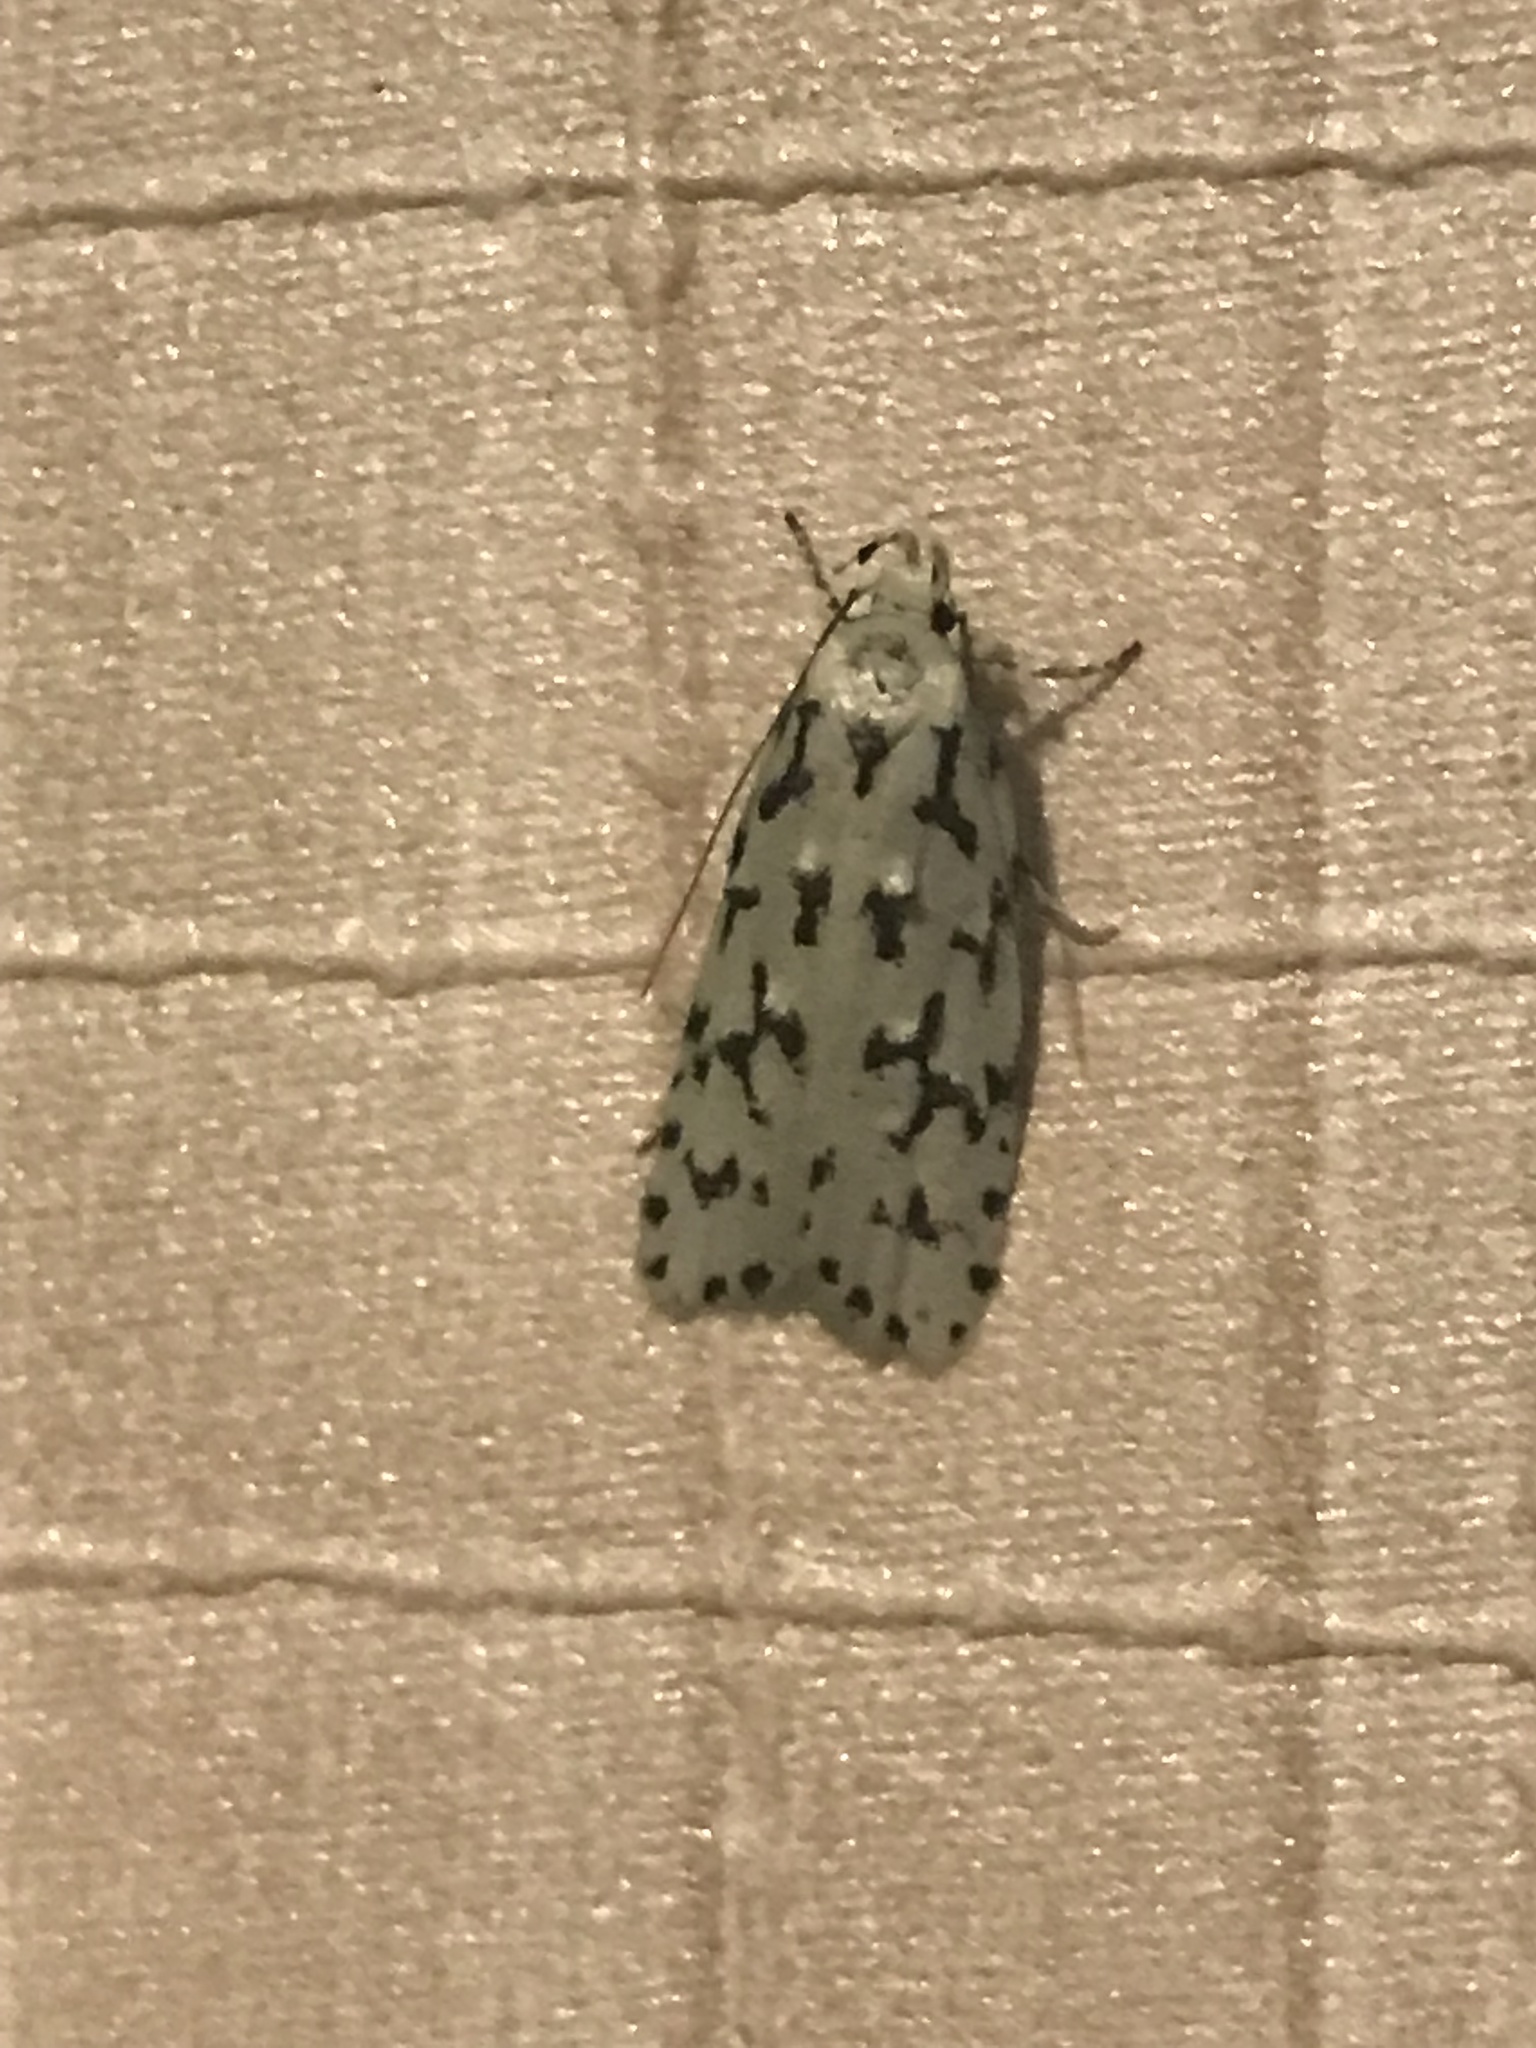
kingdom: Animalia
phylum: Arthropoda
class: Insecta
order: Lepidoptera
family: Oecophoridae
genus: Izatha
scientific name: Izatha huttoni
